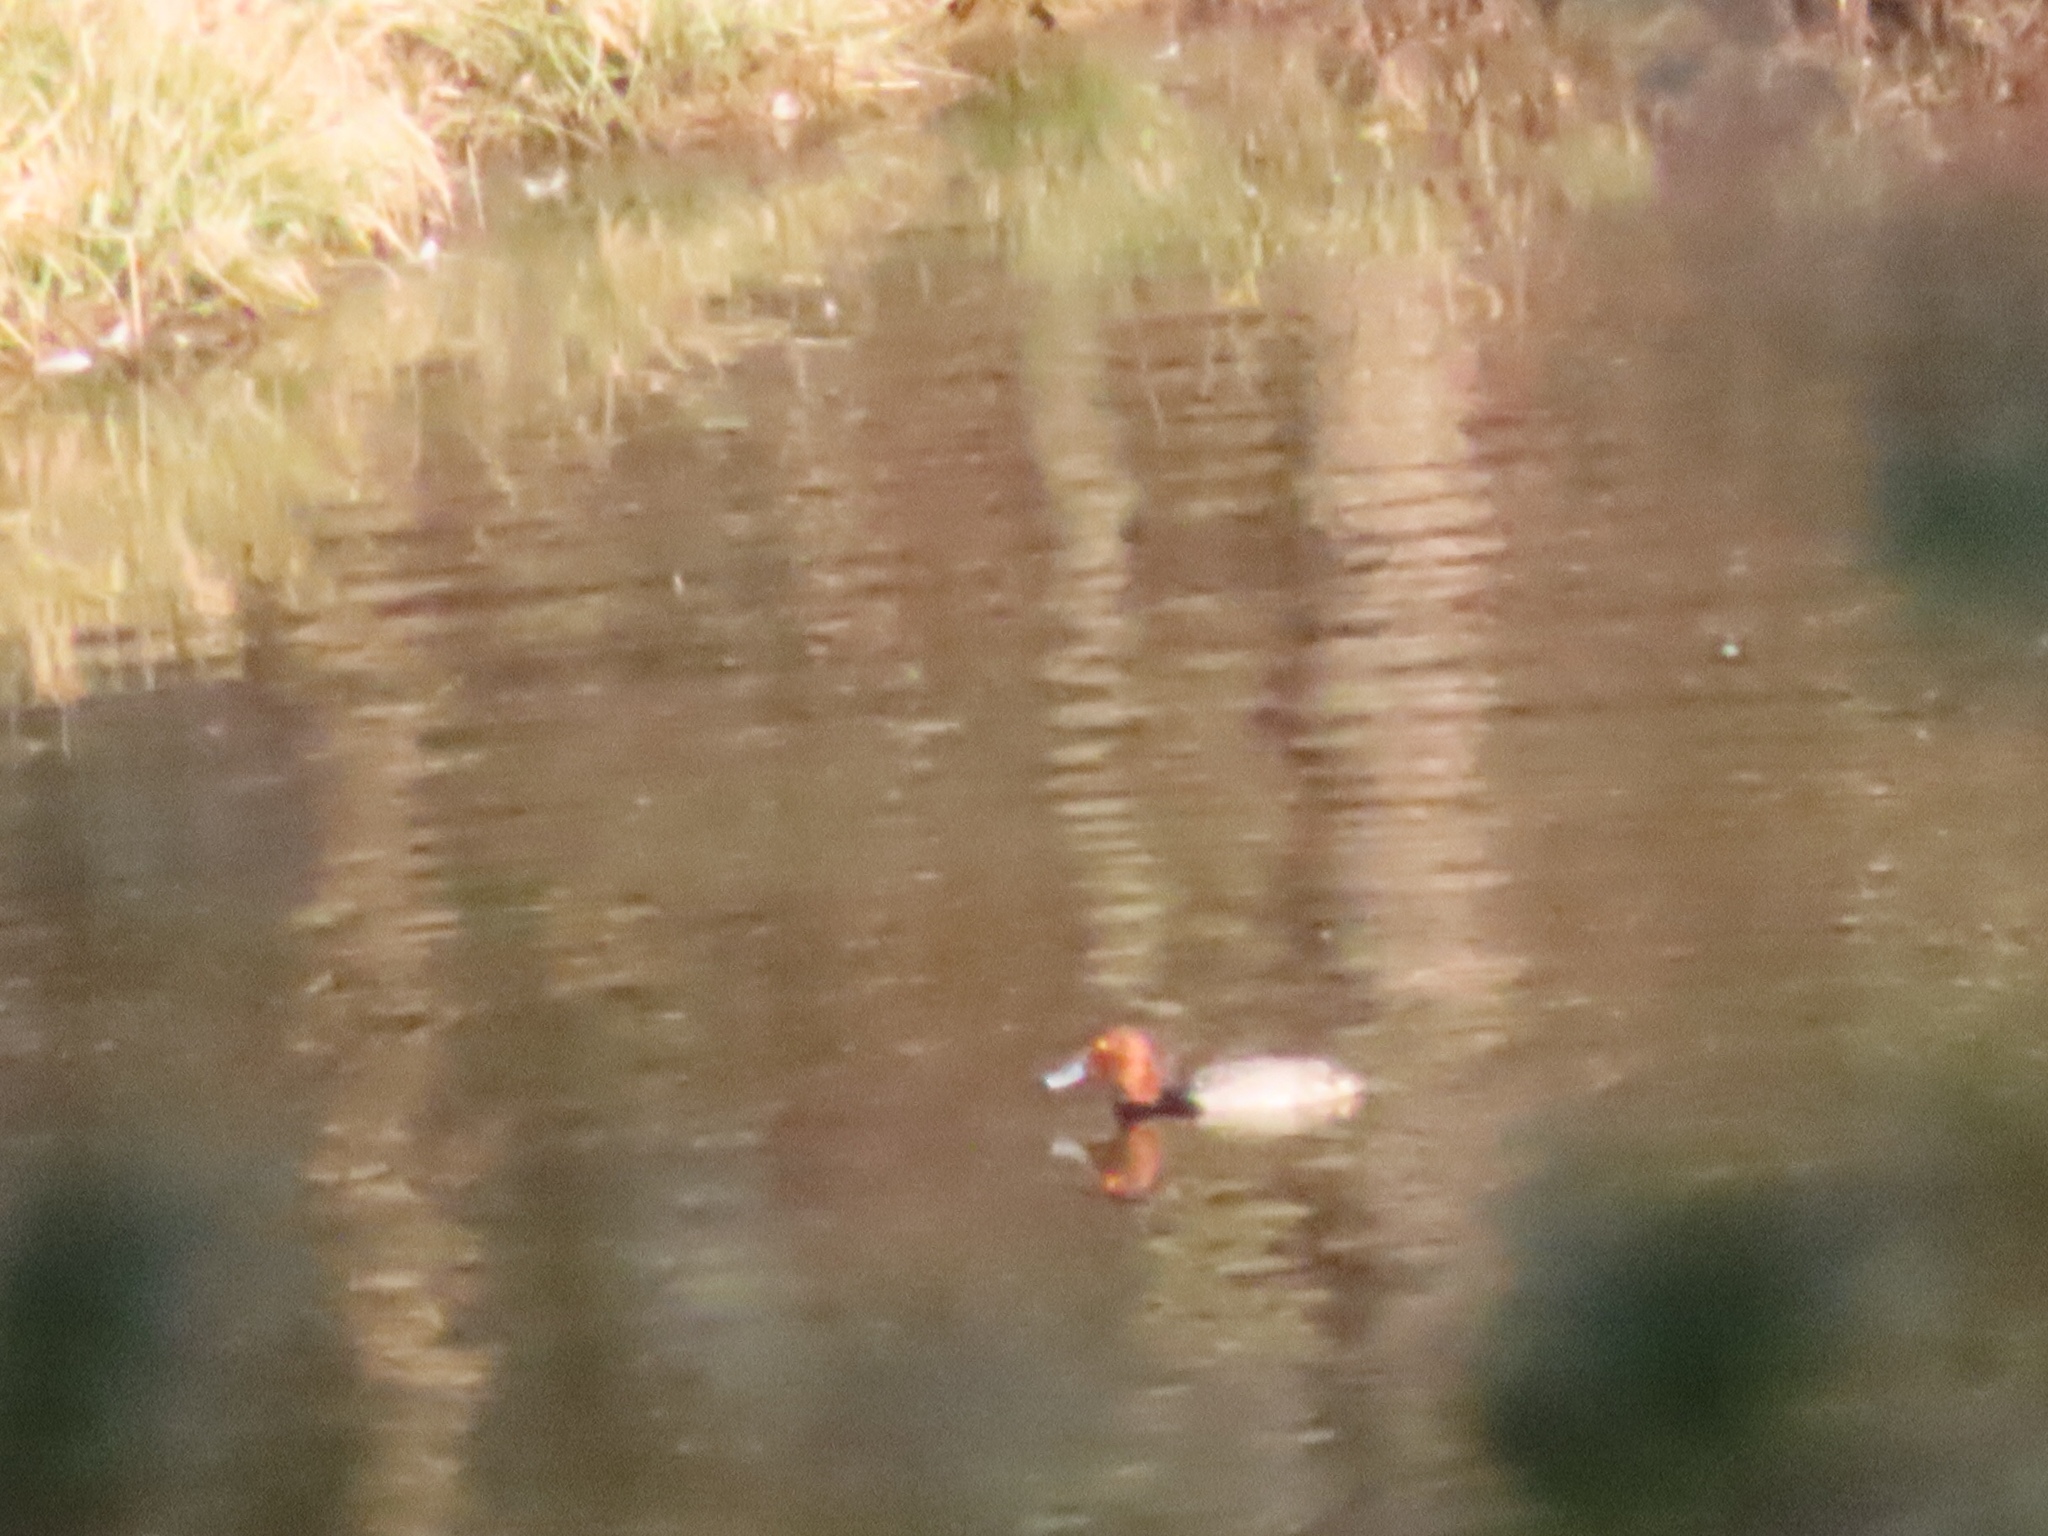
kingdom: Animalia
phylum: Chordata
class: Aves
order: Anseriformes
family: Anatidae
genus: Aythya
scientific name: Aythya americana
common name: Redhead
